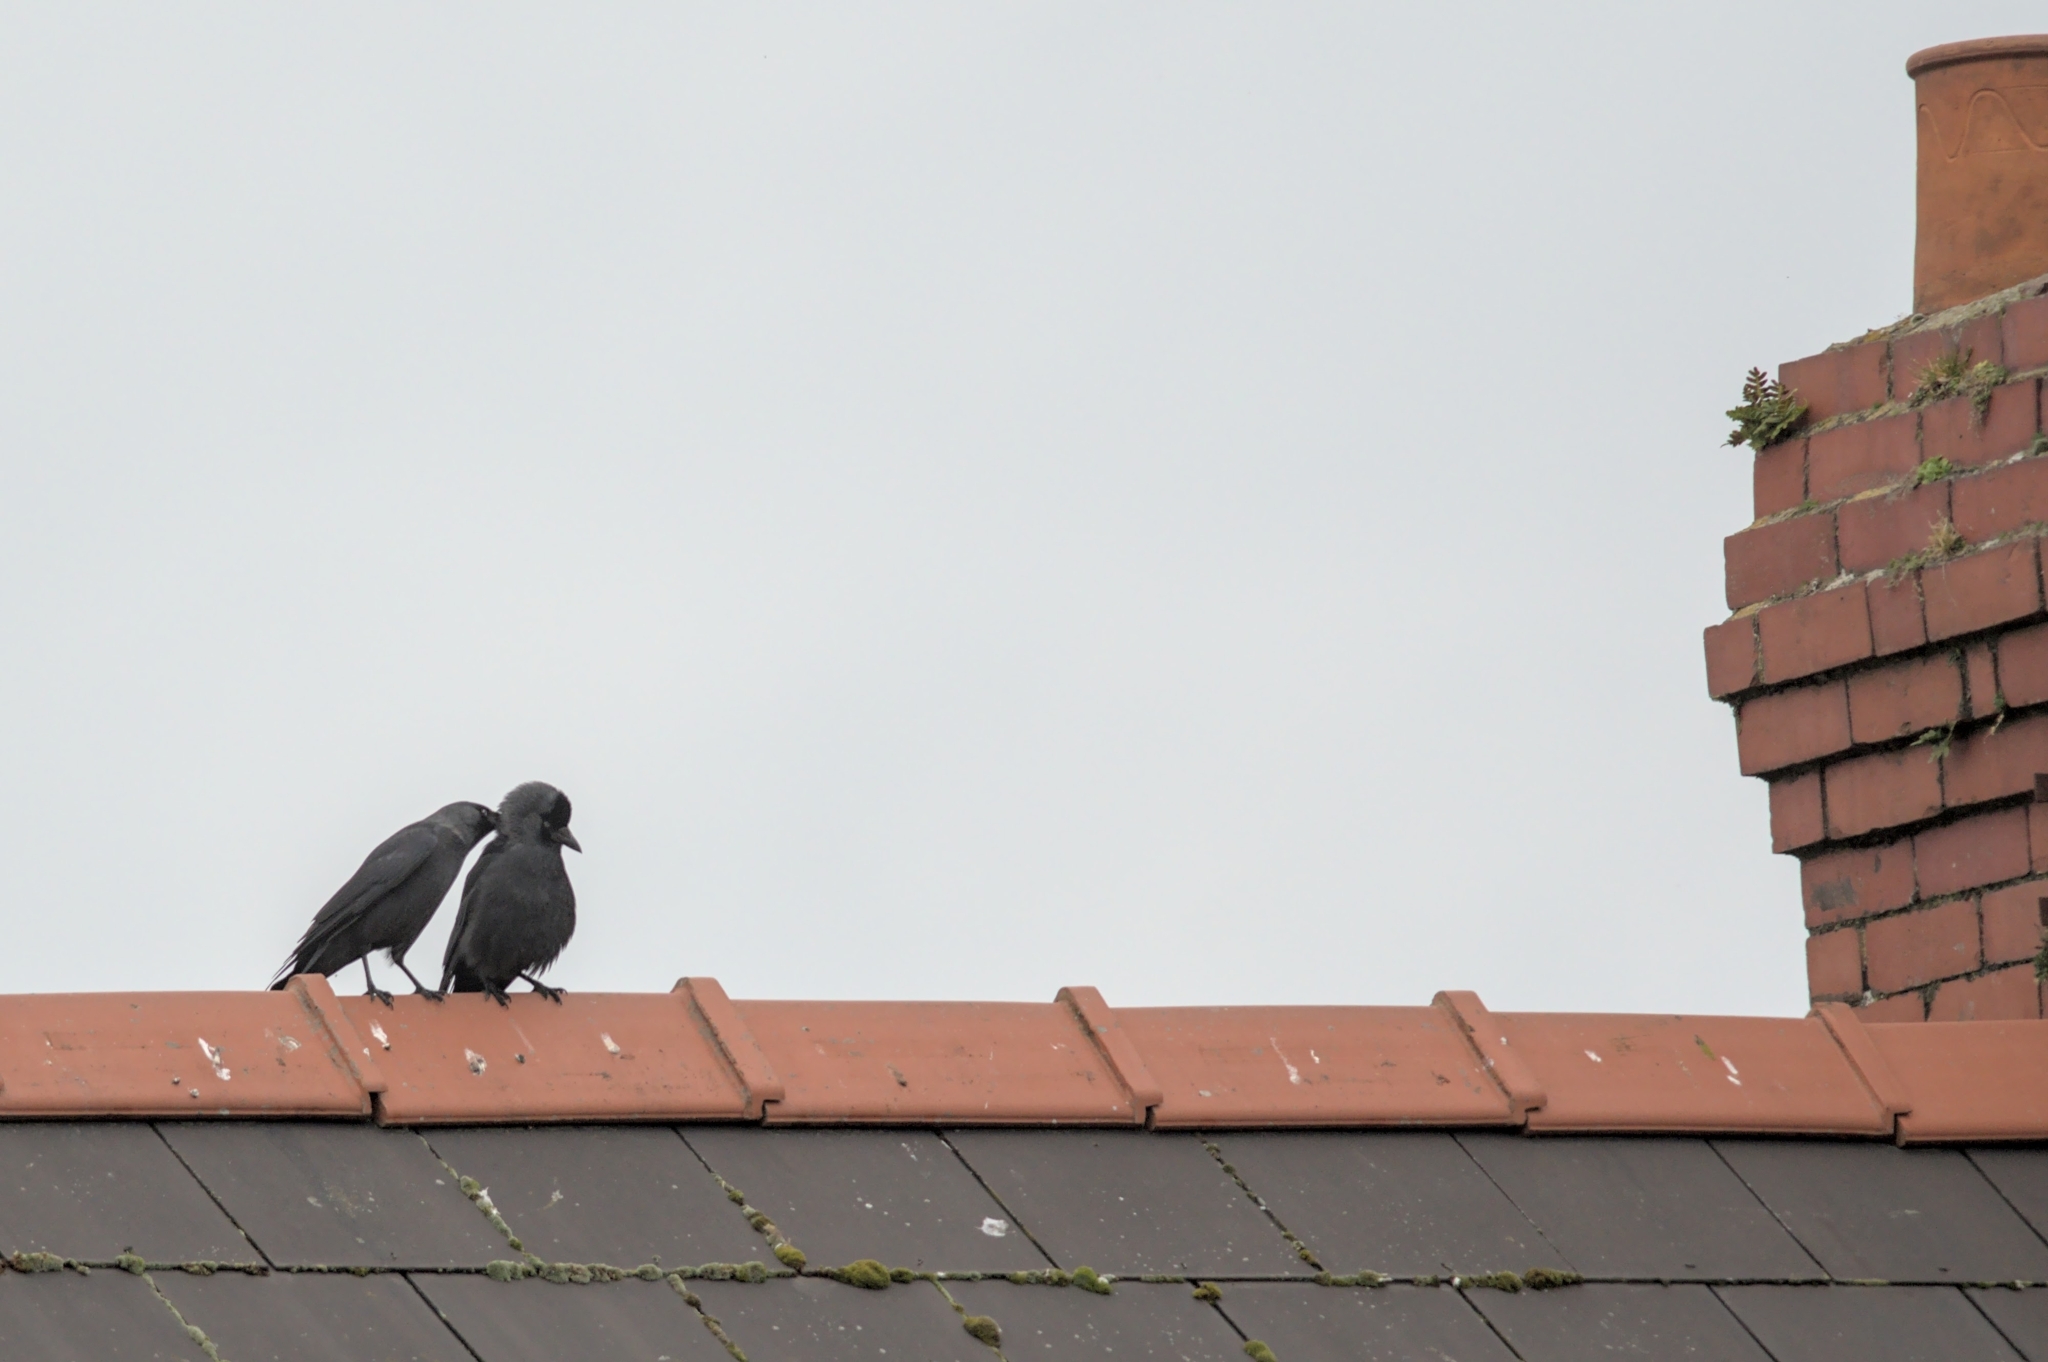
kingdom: Animalia
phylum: Chordata
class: Aves
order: Passeriformes
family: Corvidae
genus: Coloeus
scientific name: Coloeus monedula
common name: Western jackdaw
